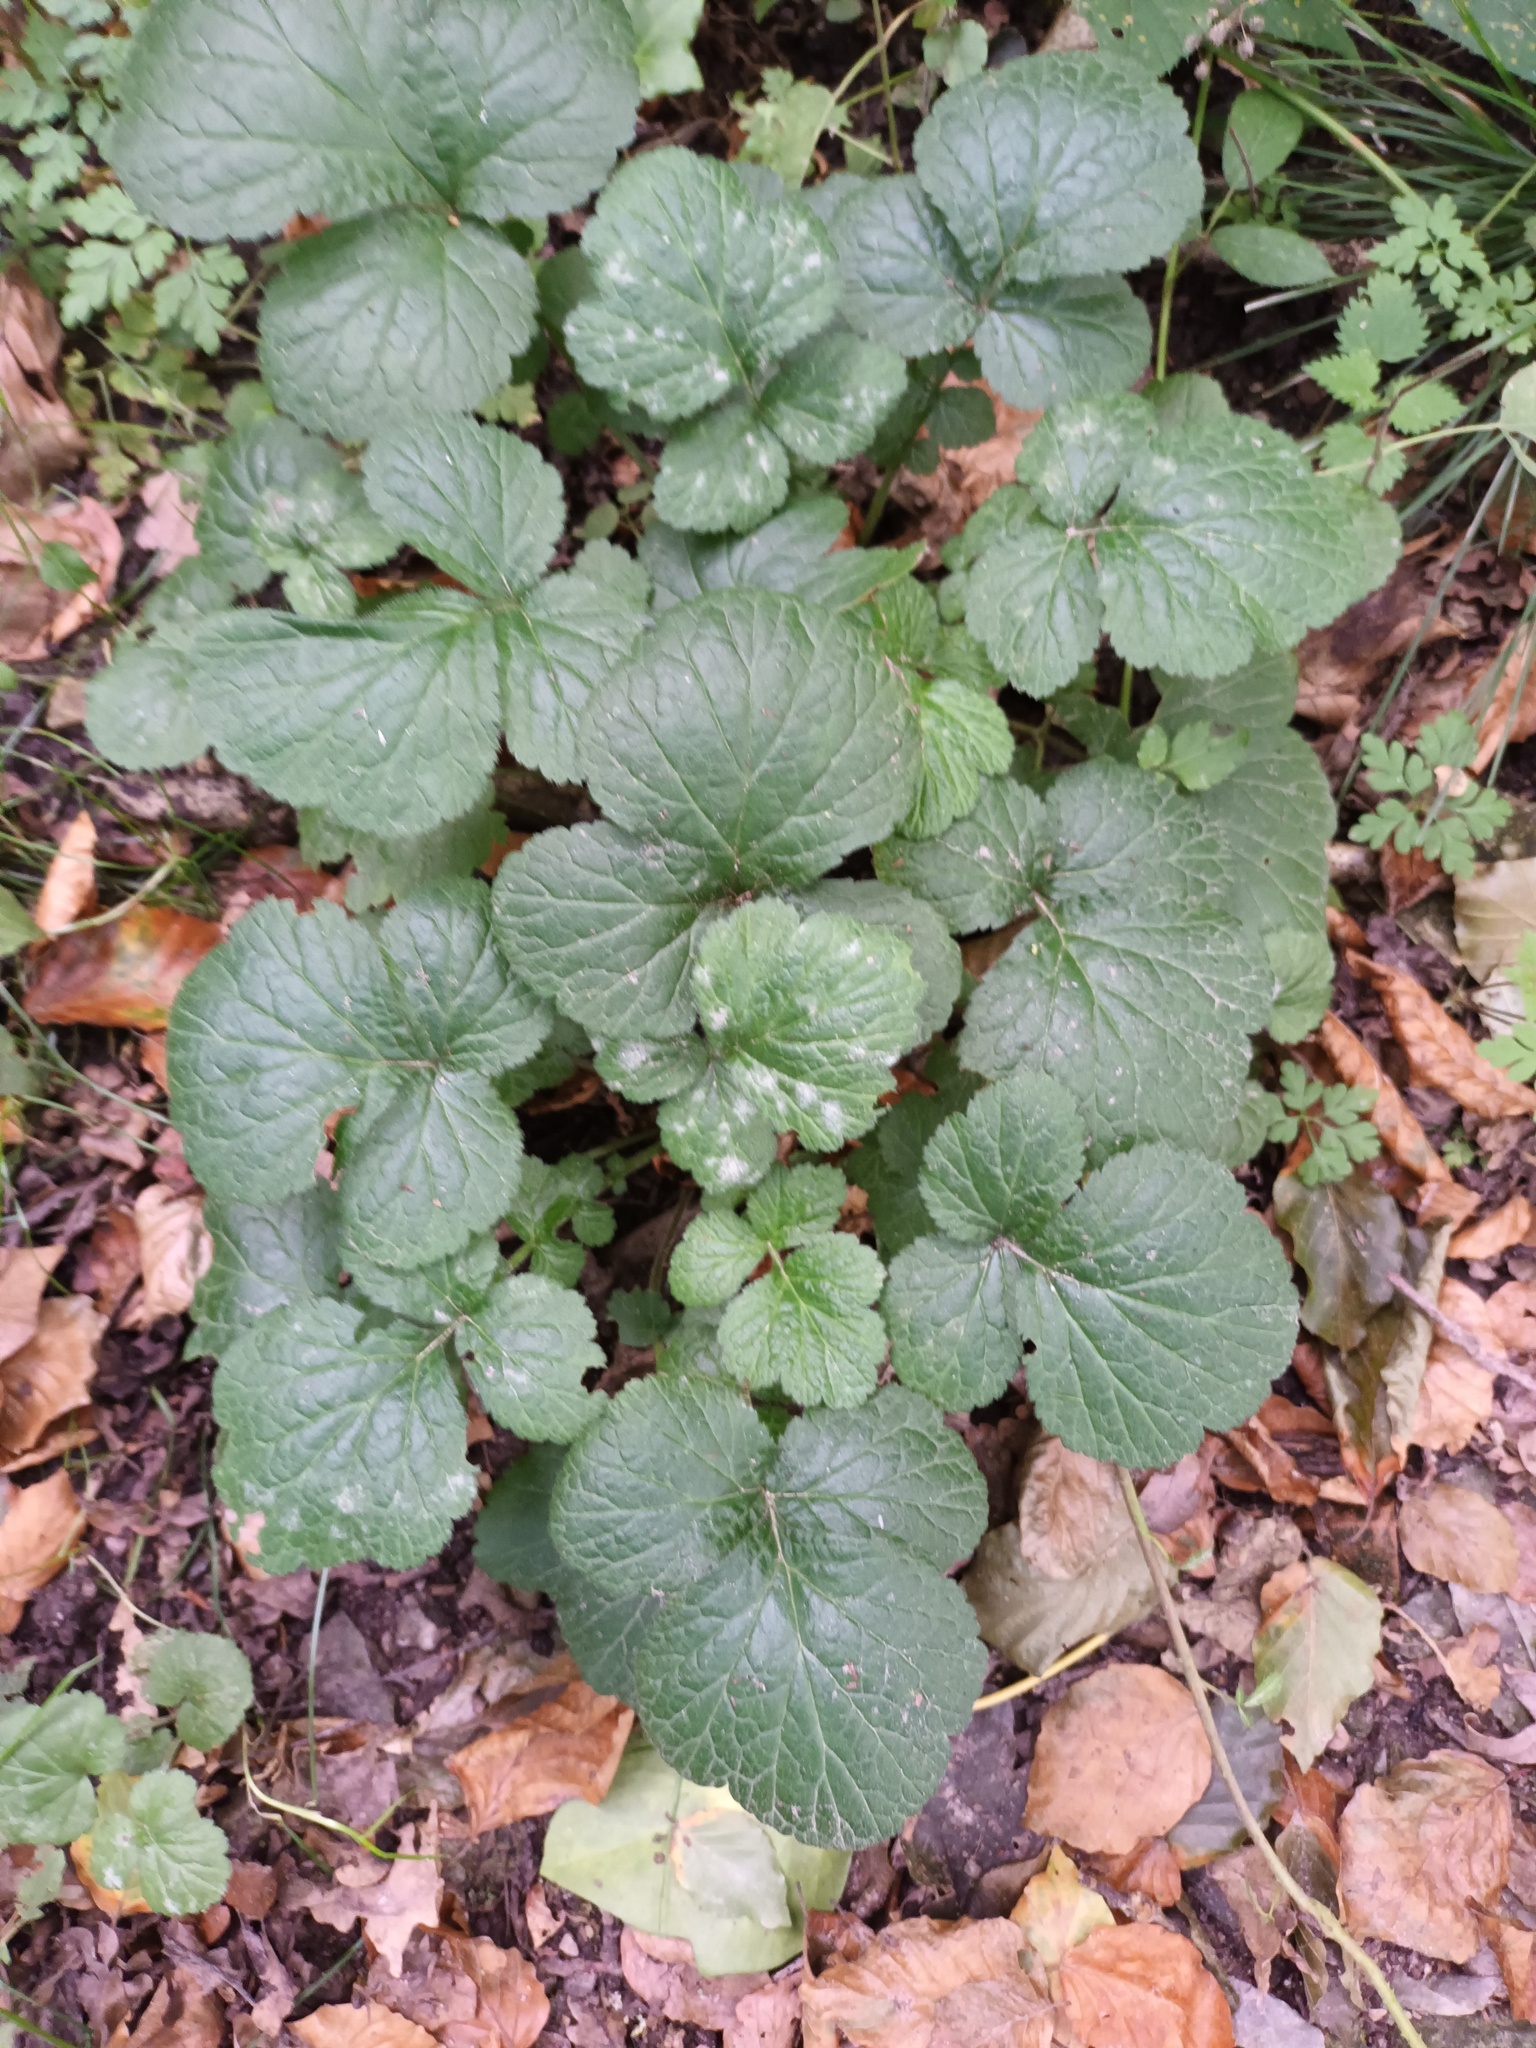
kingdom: Plantae
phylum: Tracheophyta
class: Magnoliopsida
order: Rosales
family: Rosaceae
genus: Geum
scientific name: Geum urbanum
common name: Wood avens
